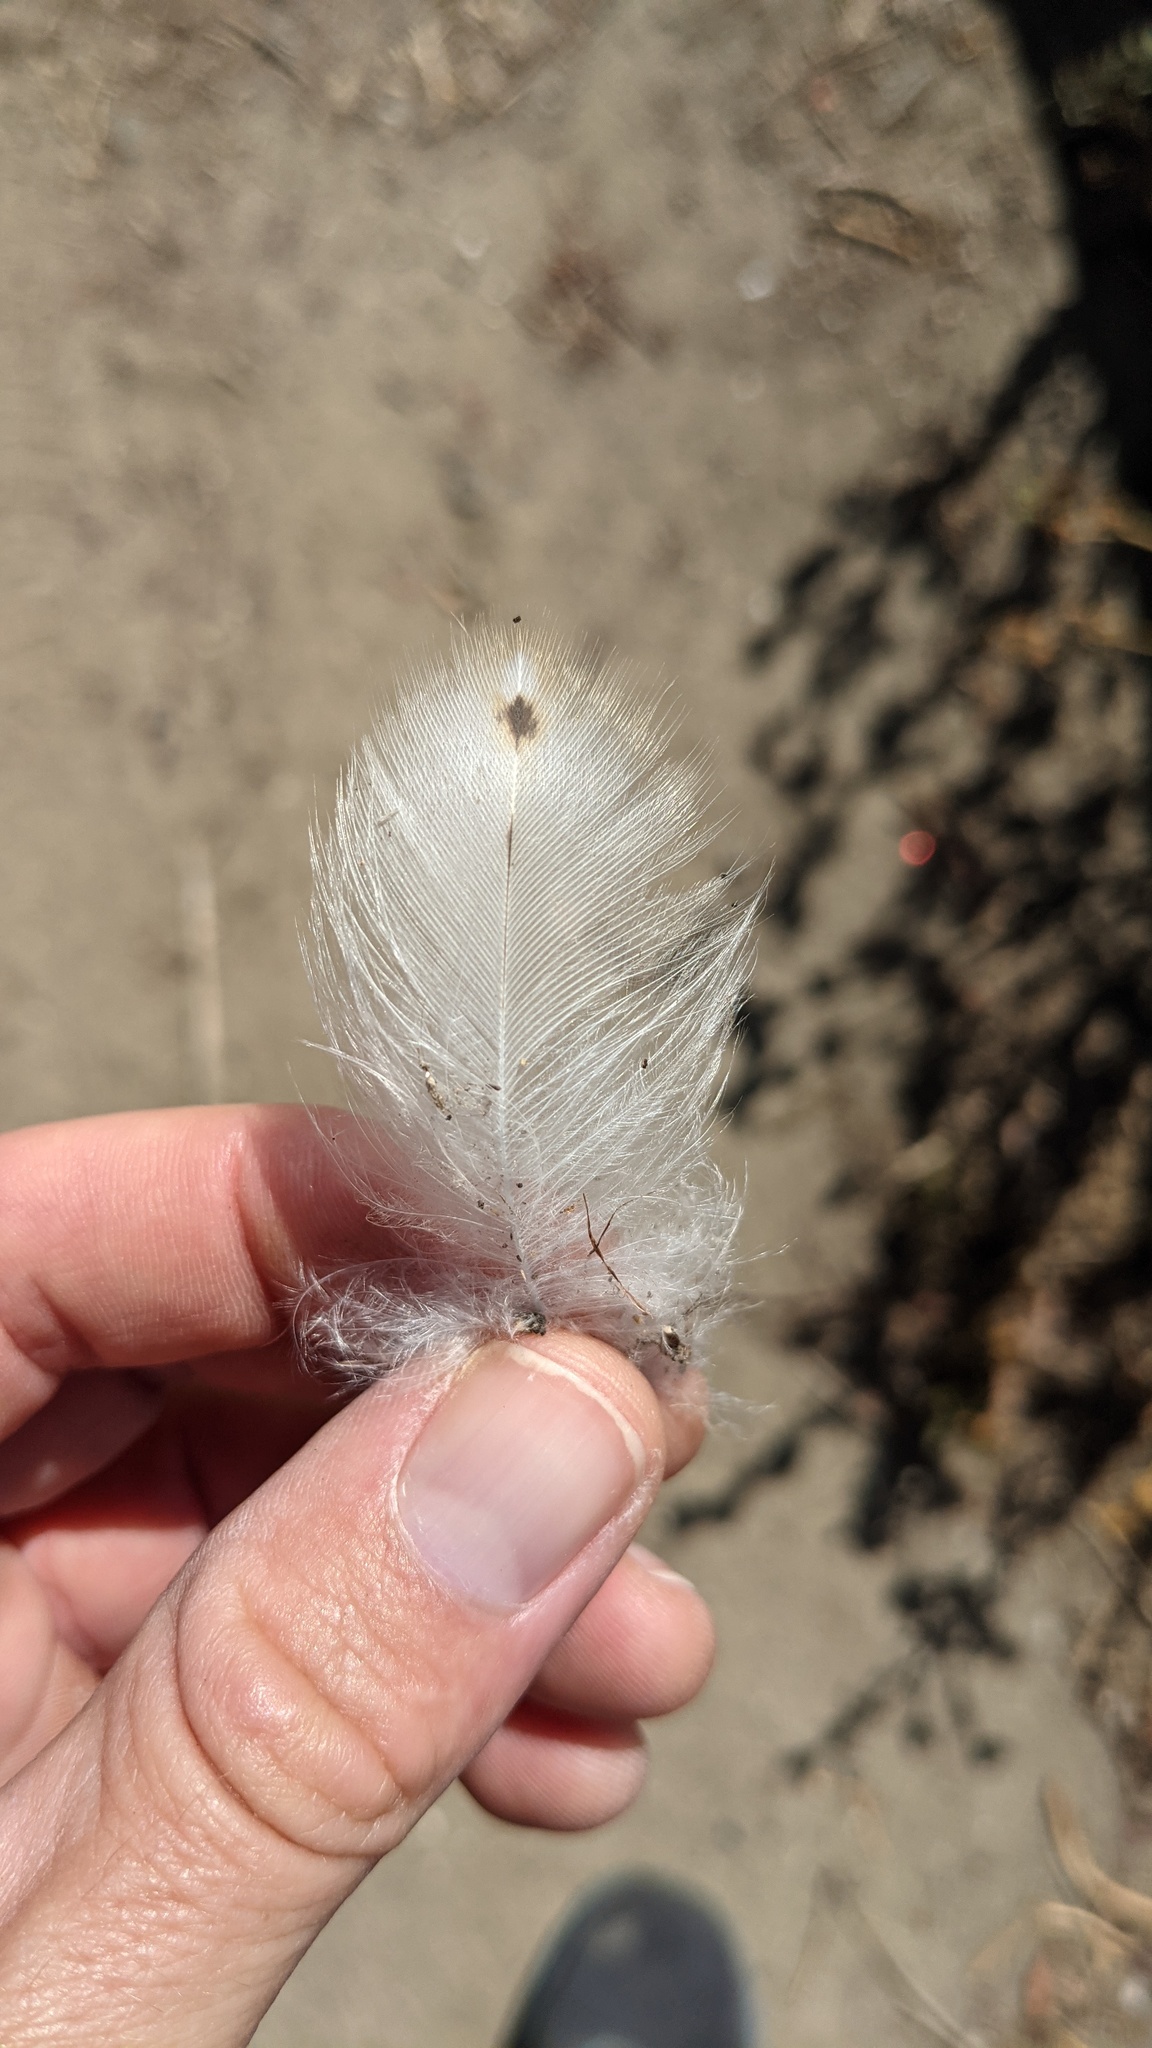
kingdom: Animalia
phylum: Chordata
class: Aves
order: Strigiformes
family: Tytonidae
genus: Tyto
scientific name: Tyto alba
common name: Barn owl
